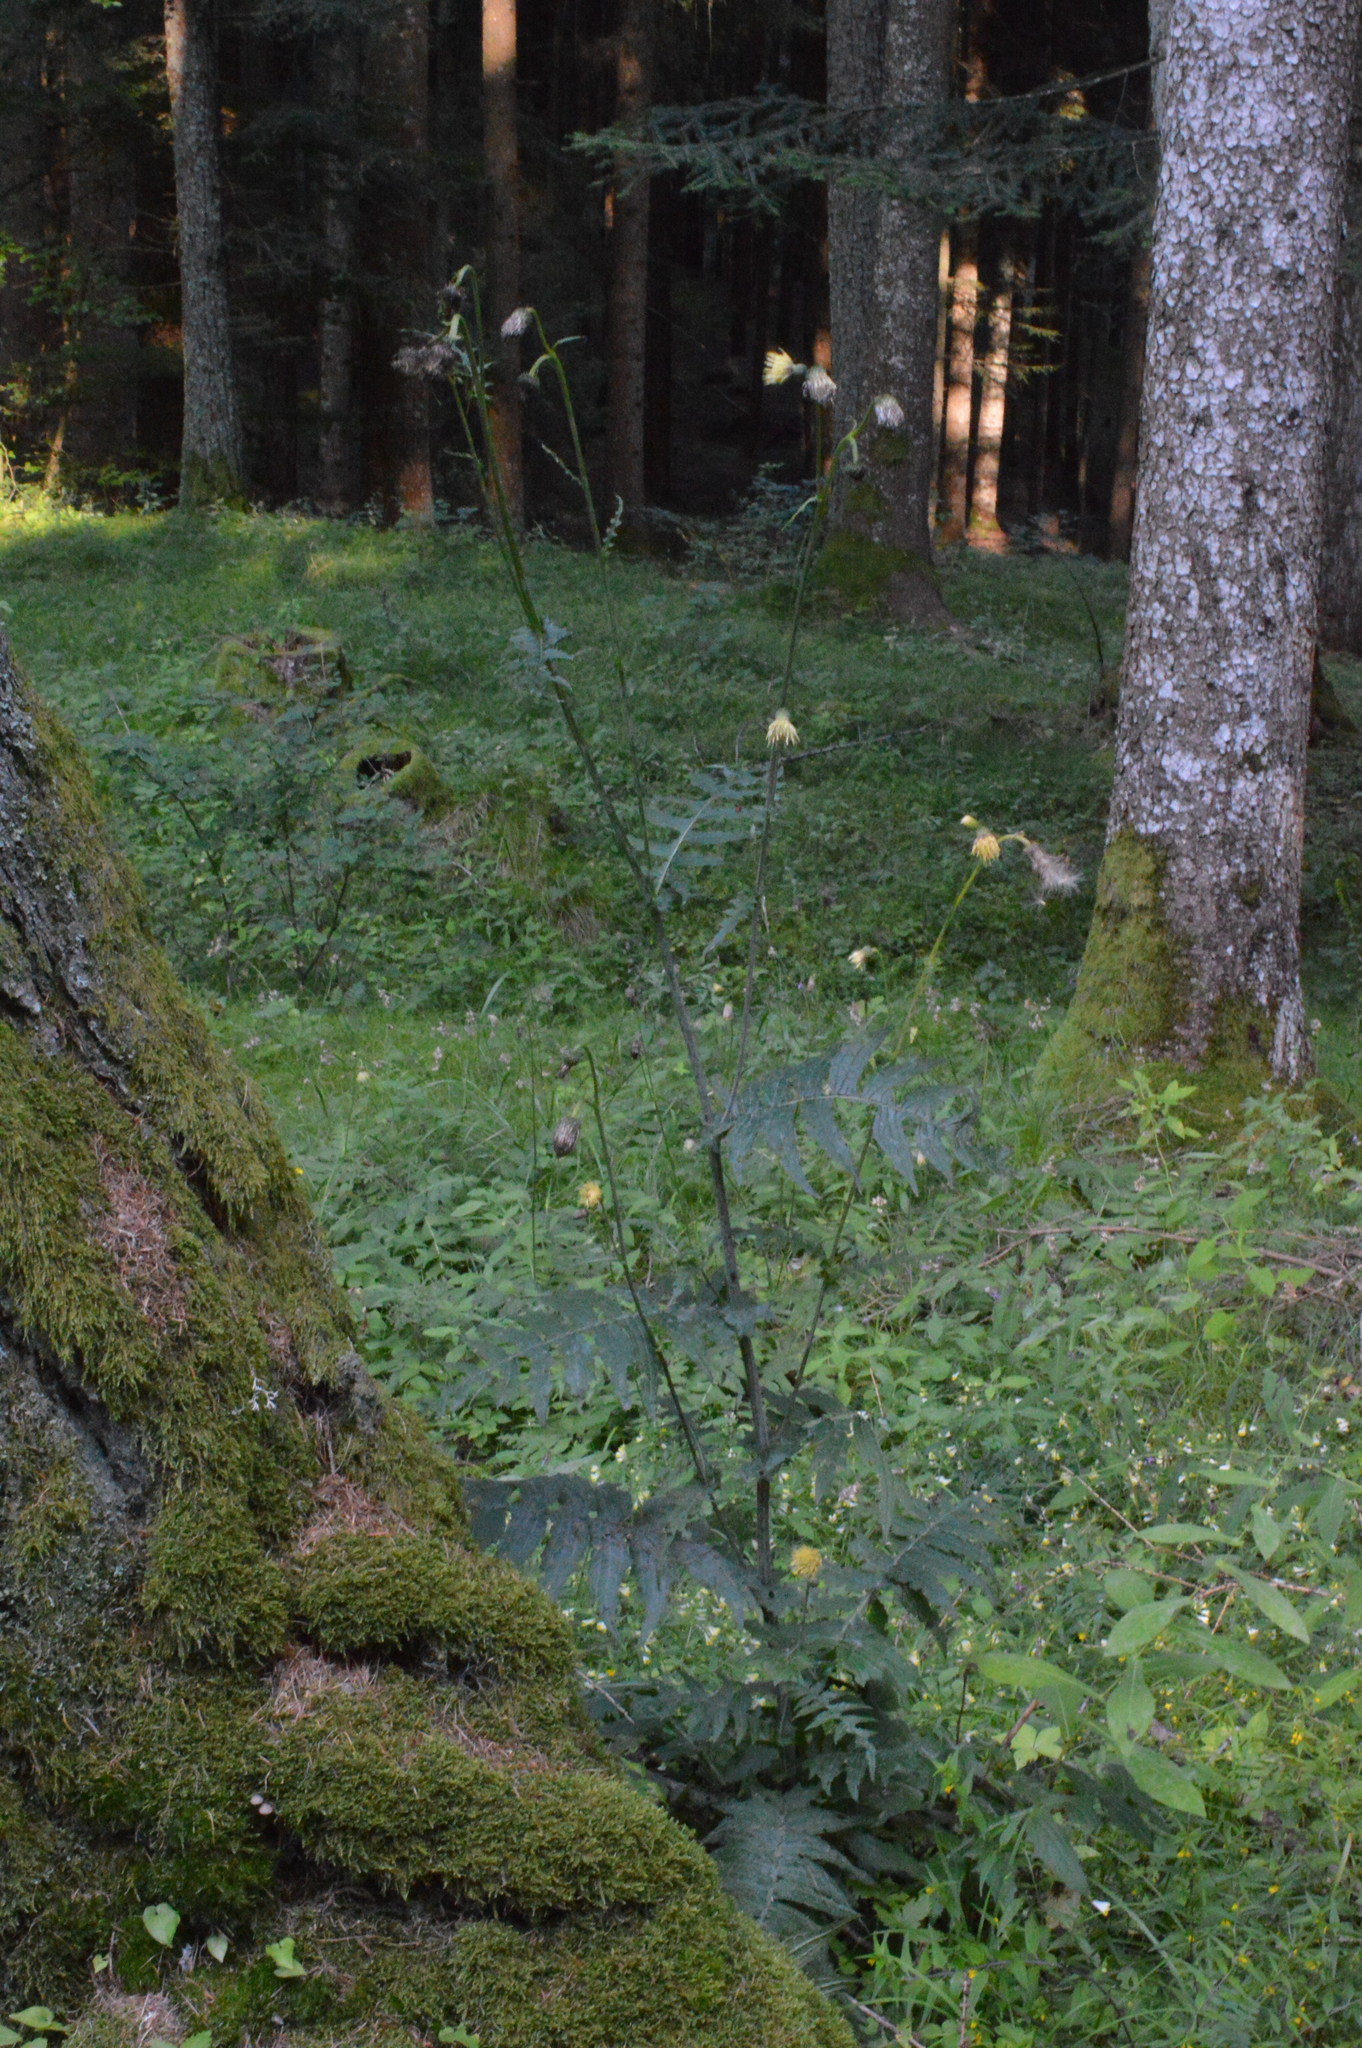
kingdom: Plantae
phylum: Tracheophyta
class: Magnoliopsida
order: Asterales
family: Asteraceae
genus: Cirsium
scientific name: Cirsium erisithales
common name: Yellow thistle
